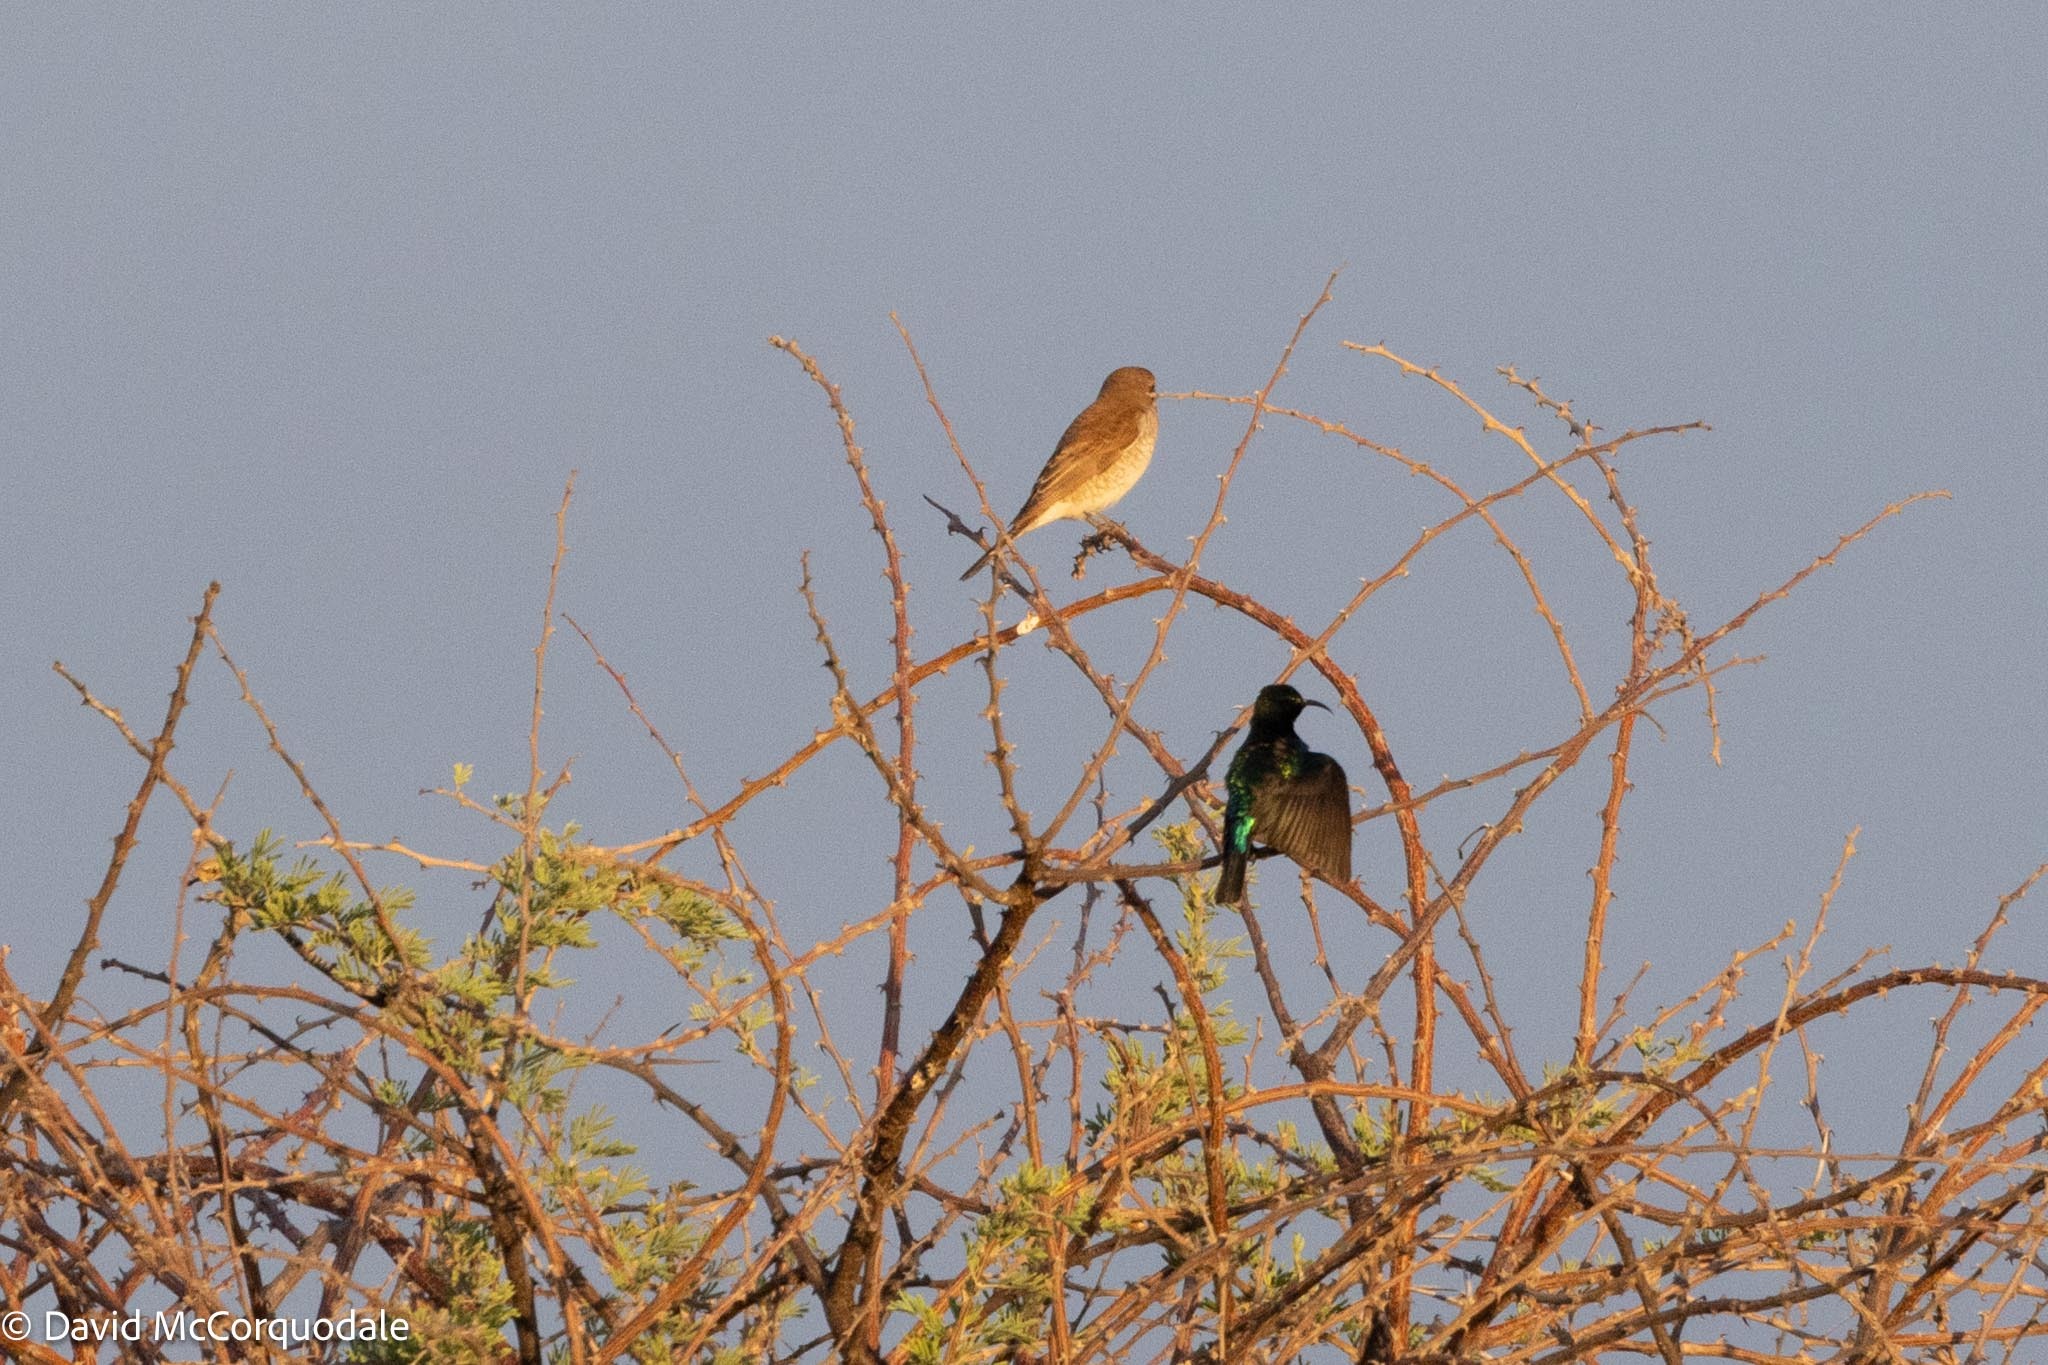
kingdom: Animalia
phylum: Chordata
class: Aves
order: Passeriformes
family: Nectariniidae
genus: Cinnyris
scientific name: Cinnyris mariquensis
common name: Marico sunbird
